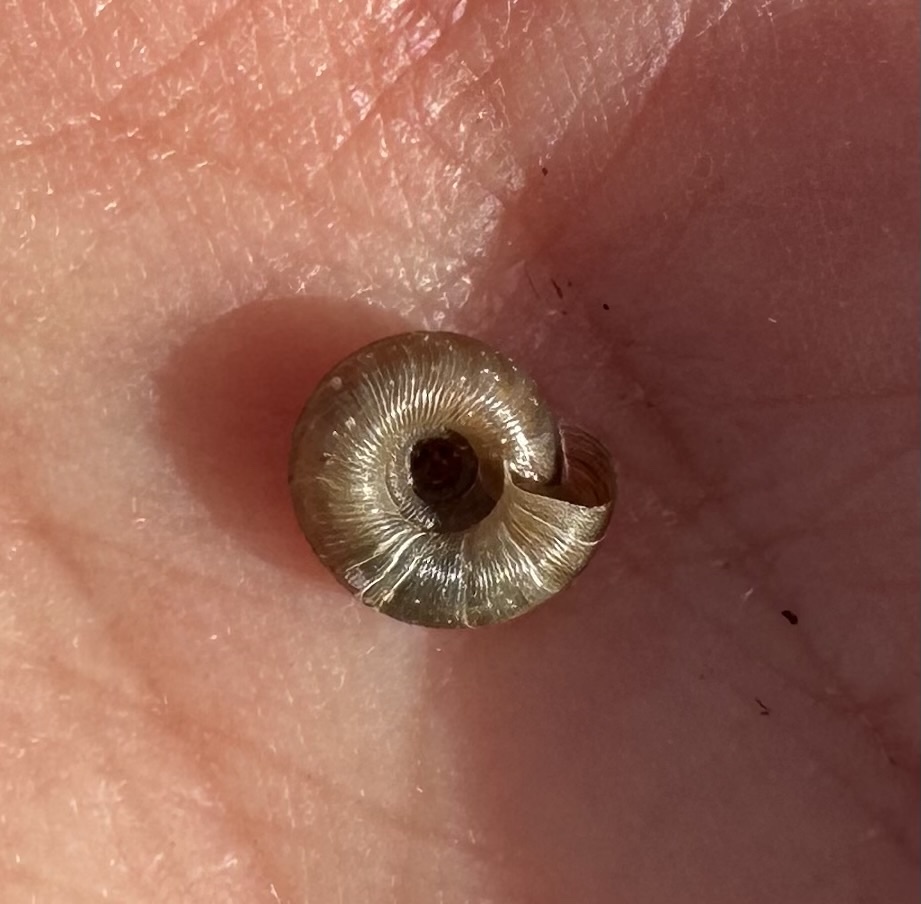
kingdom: Animalia
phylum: Mollusca
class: Gastropoda
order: Stylommatophora
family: Discidae
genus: Discus
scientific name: Discus rotundatus
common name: Rounded snail
